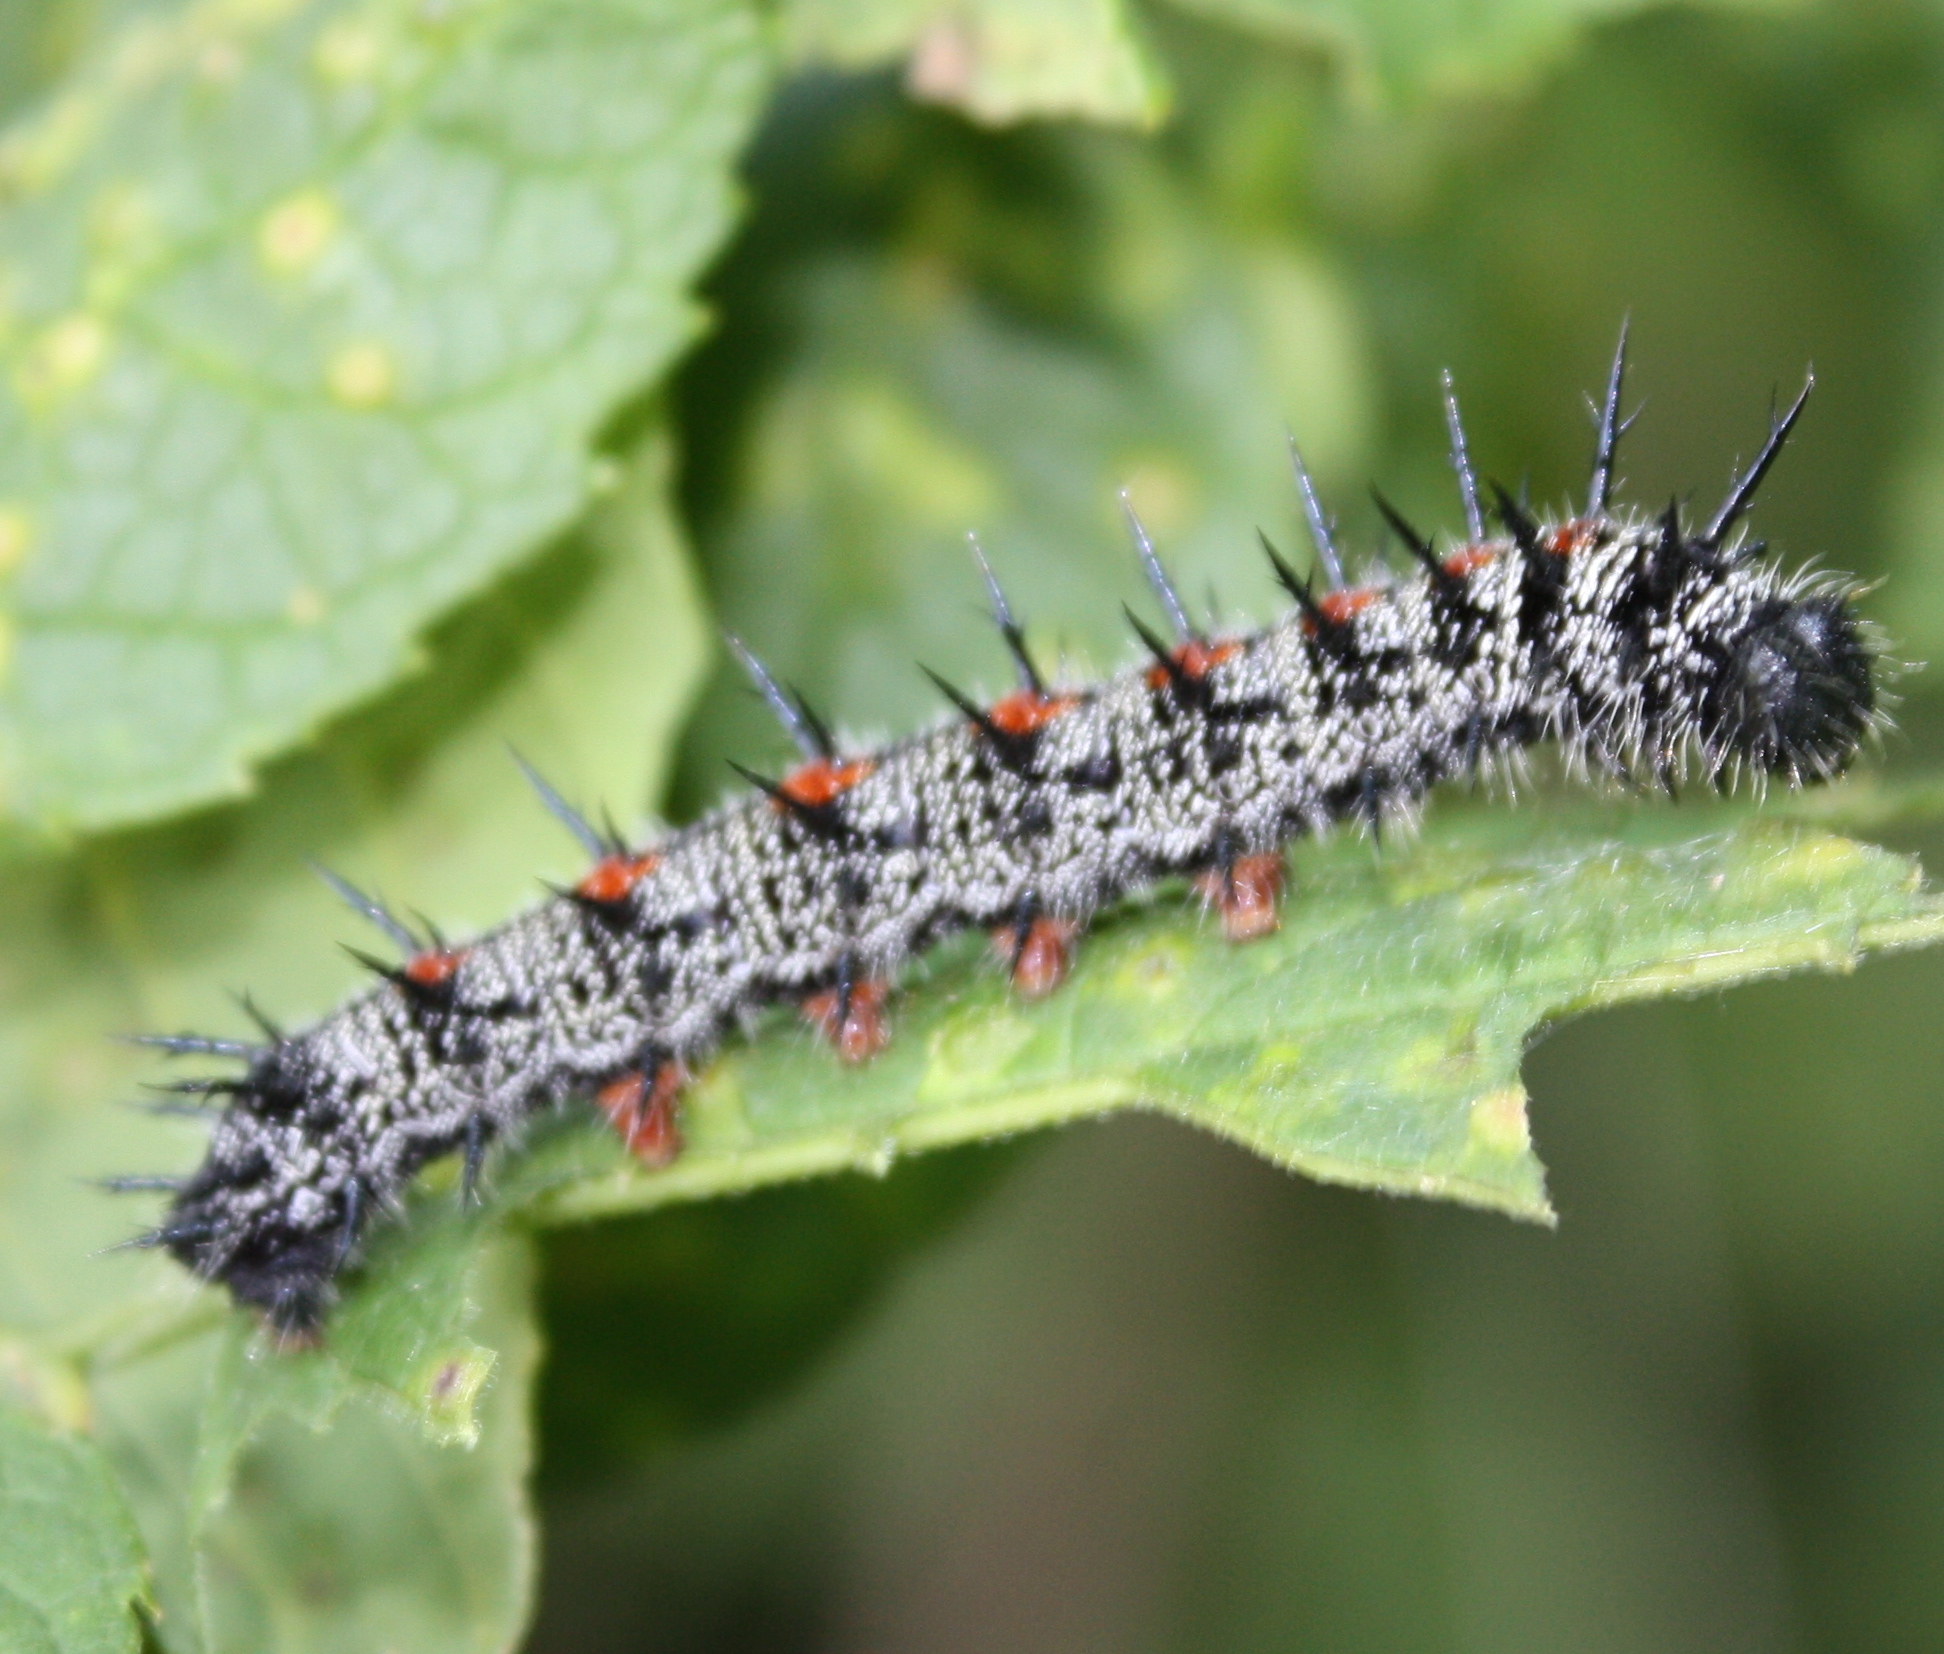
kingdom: Animalia
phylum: Arthropoda
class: Insecta
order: Lepidoptera
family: Nymphalidae
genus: Nymphalis
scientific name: Nymphalis antiopa
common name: Camberwell beauty
